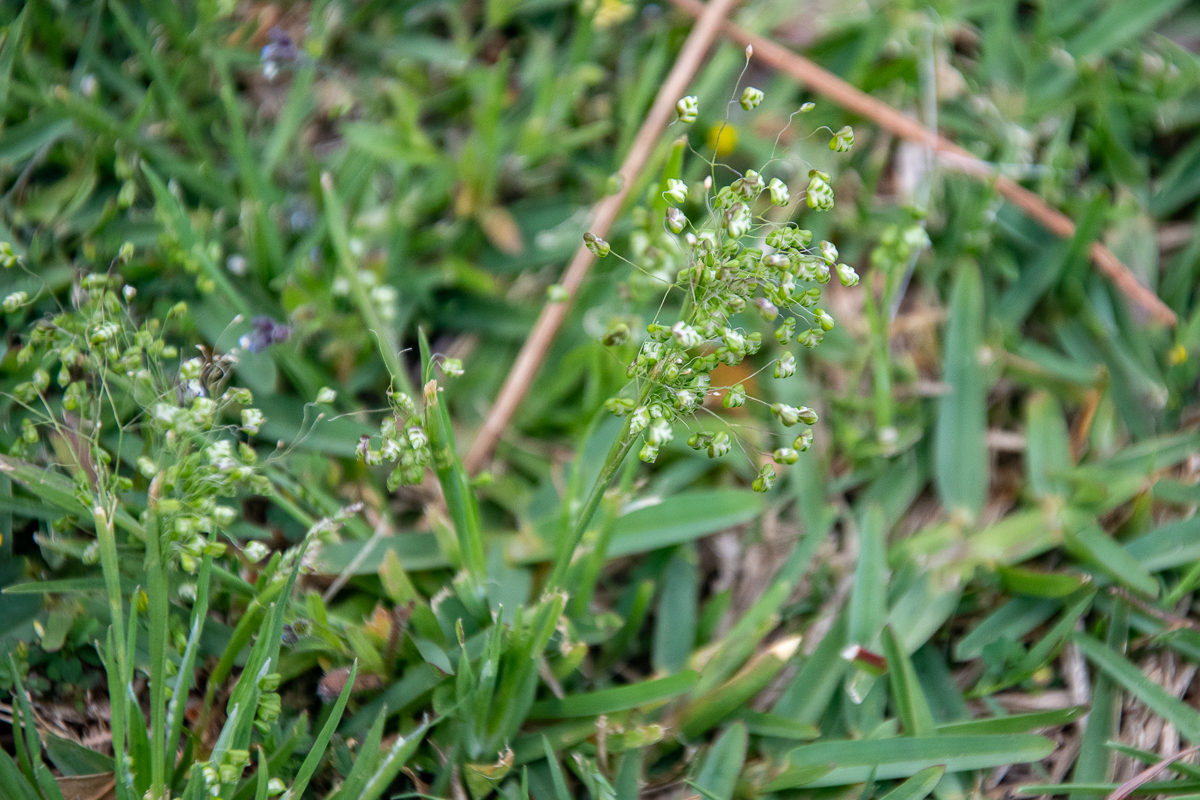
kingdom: Plantae
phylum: Tracheophyta
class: Liliopsida
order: Poales
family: Poaceae
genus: Briza
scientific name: Briza minor
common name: Lesser quaking-grass
